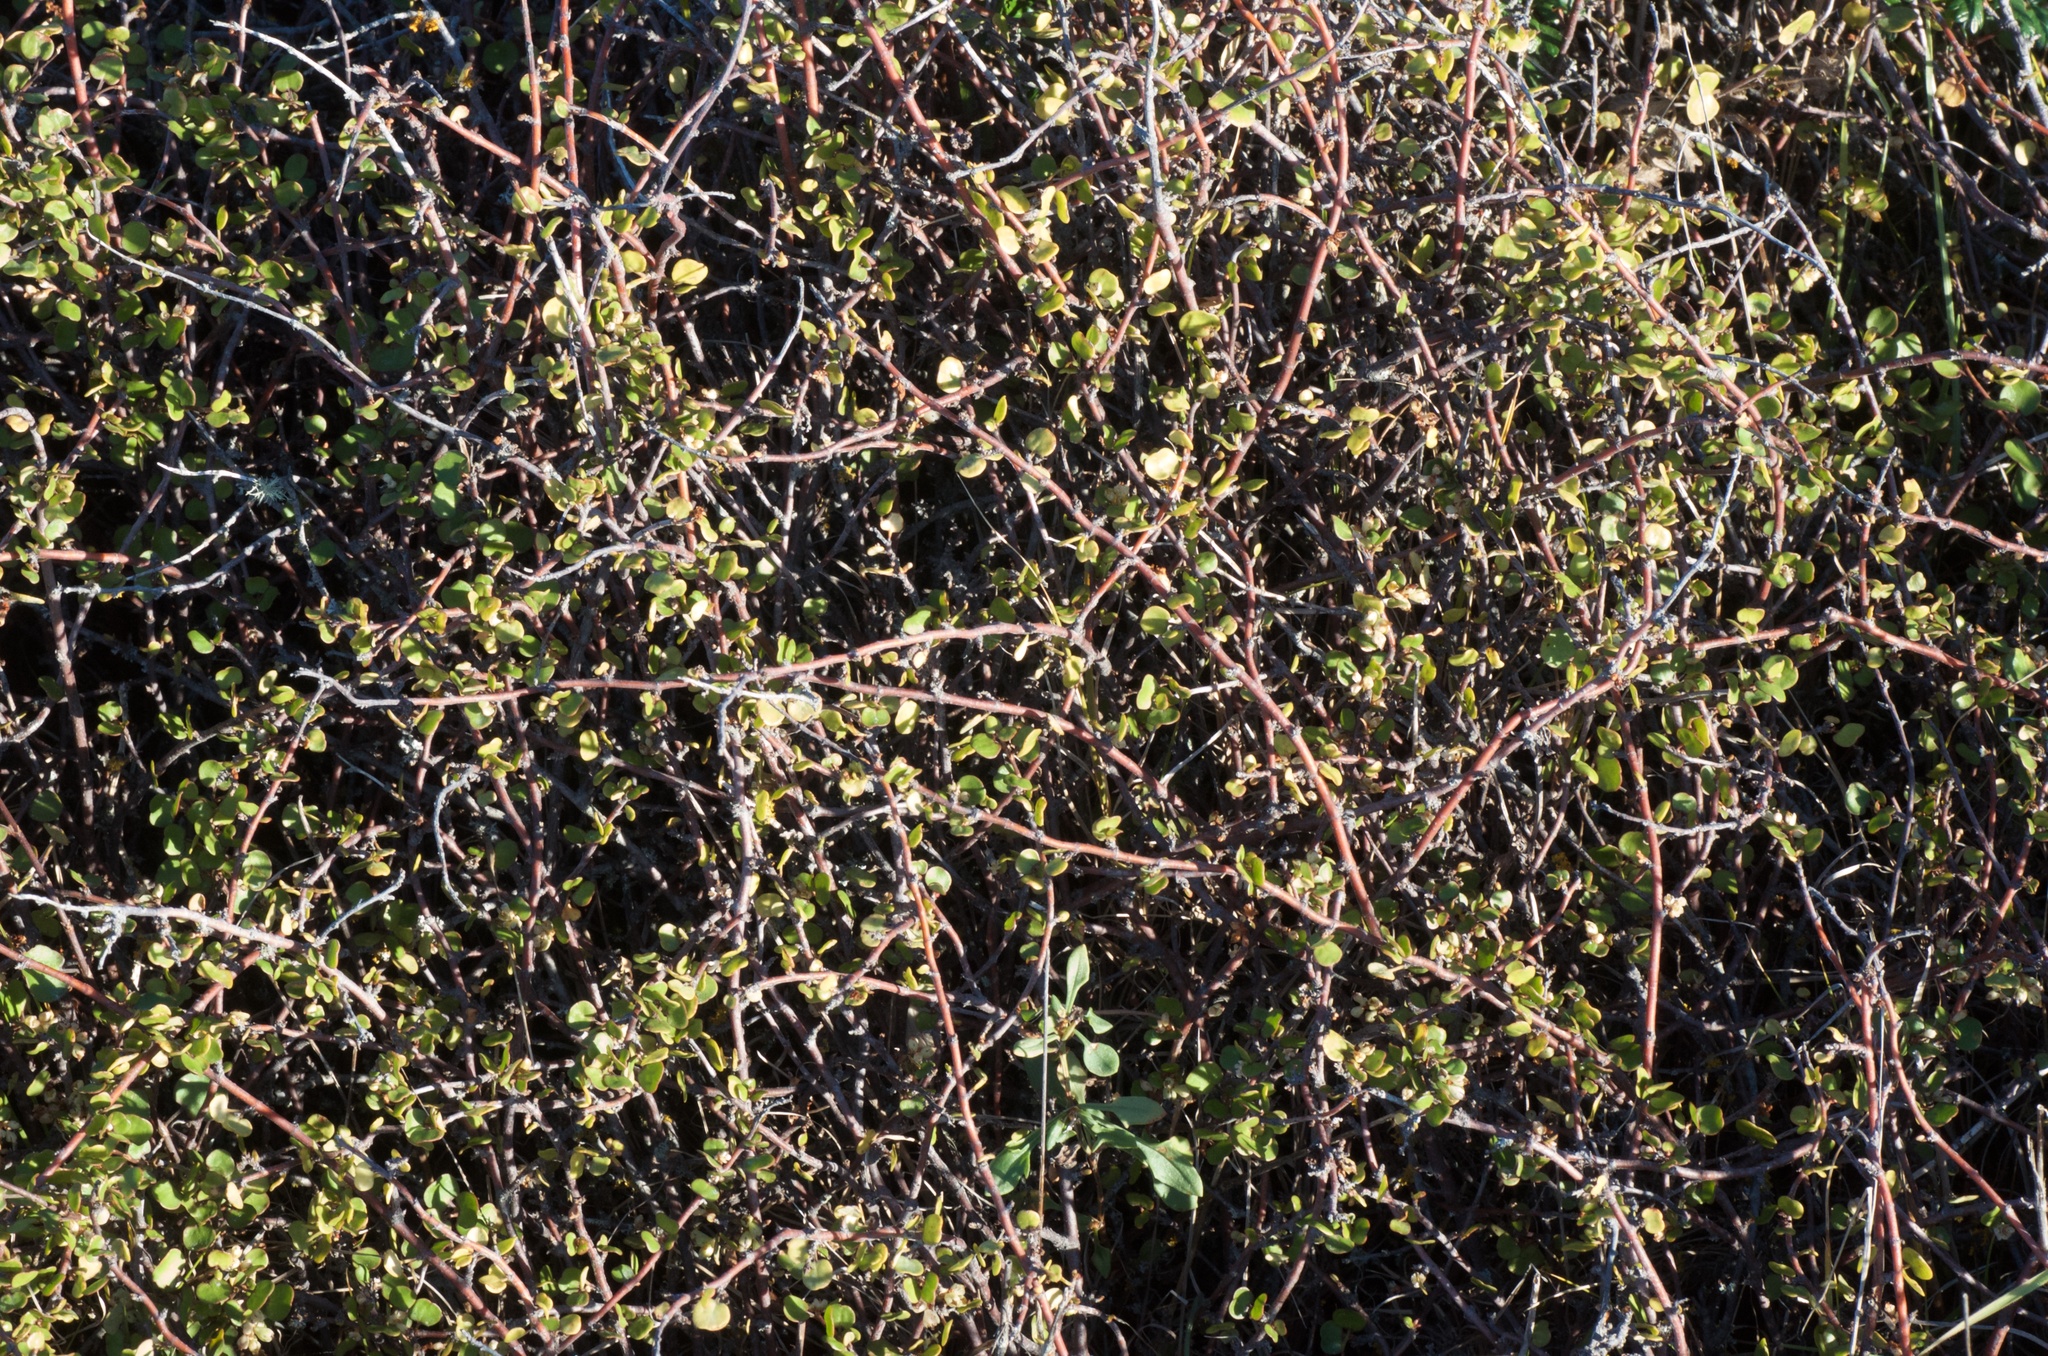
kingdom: Plantae
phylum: Tracheophyta
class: Magnoliopsida
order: Caryophyllales
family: Polygonaceae
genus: Muehlenbeckia
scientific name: Muehlenbeckia complexa
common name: Wireplant
